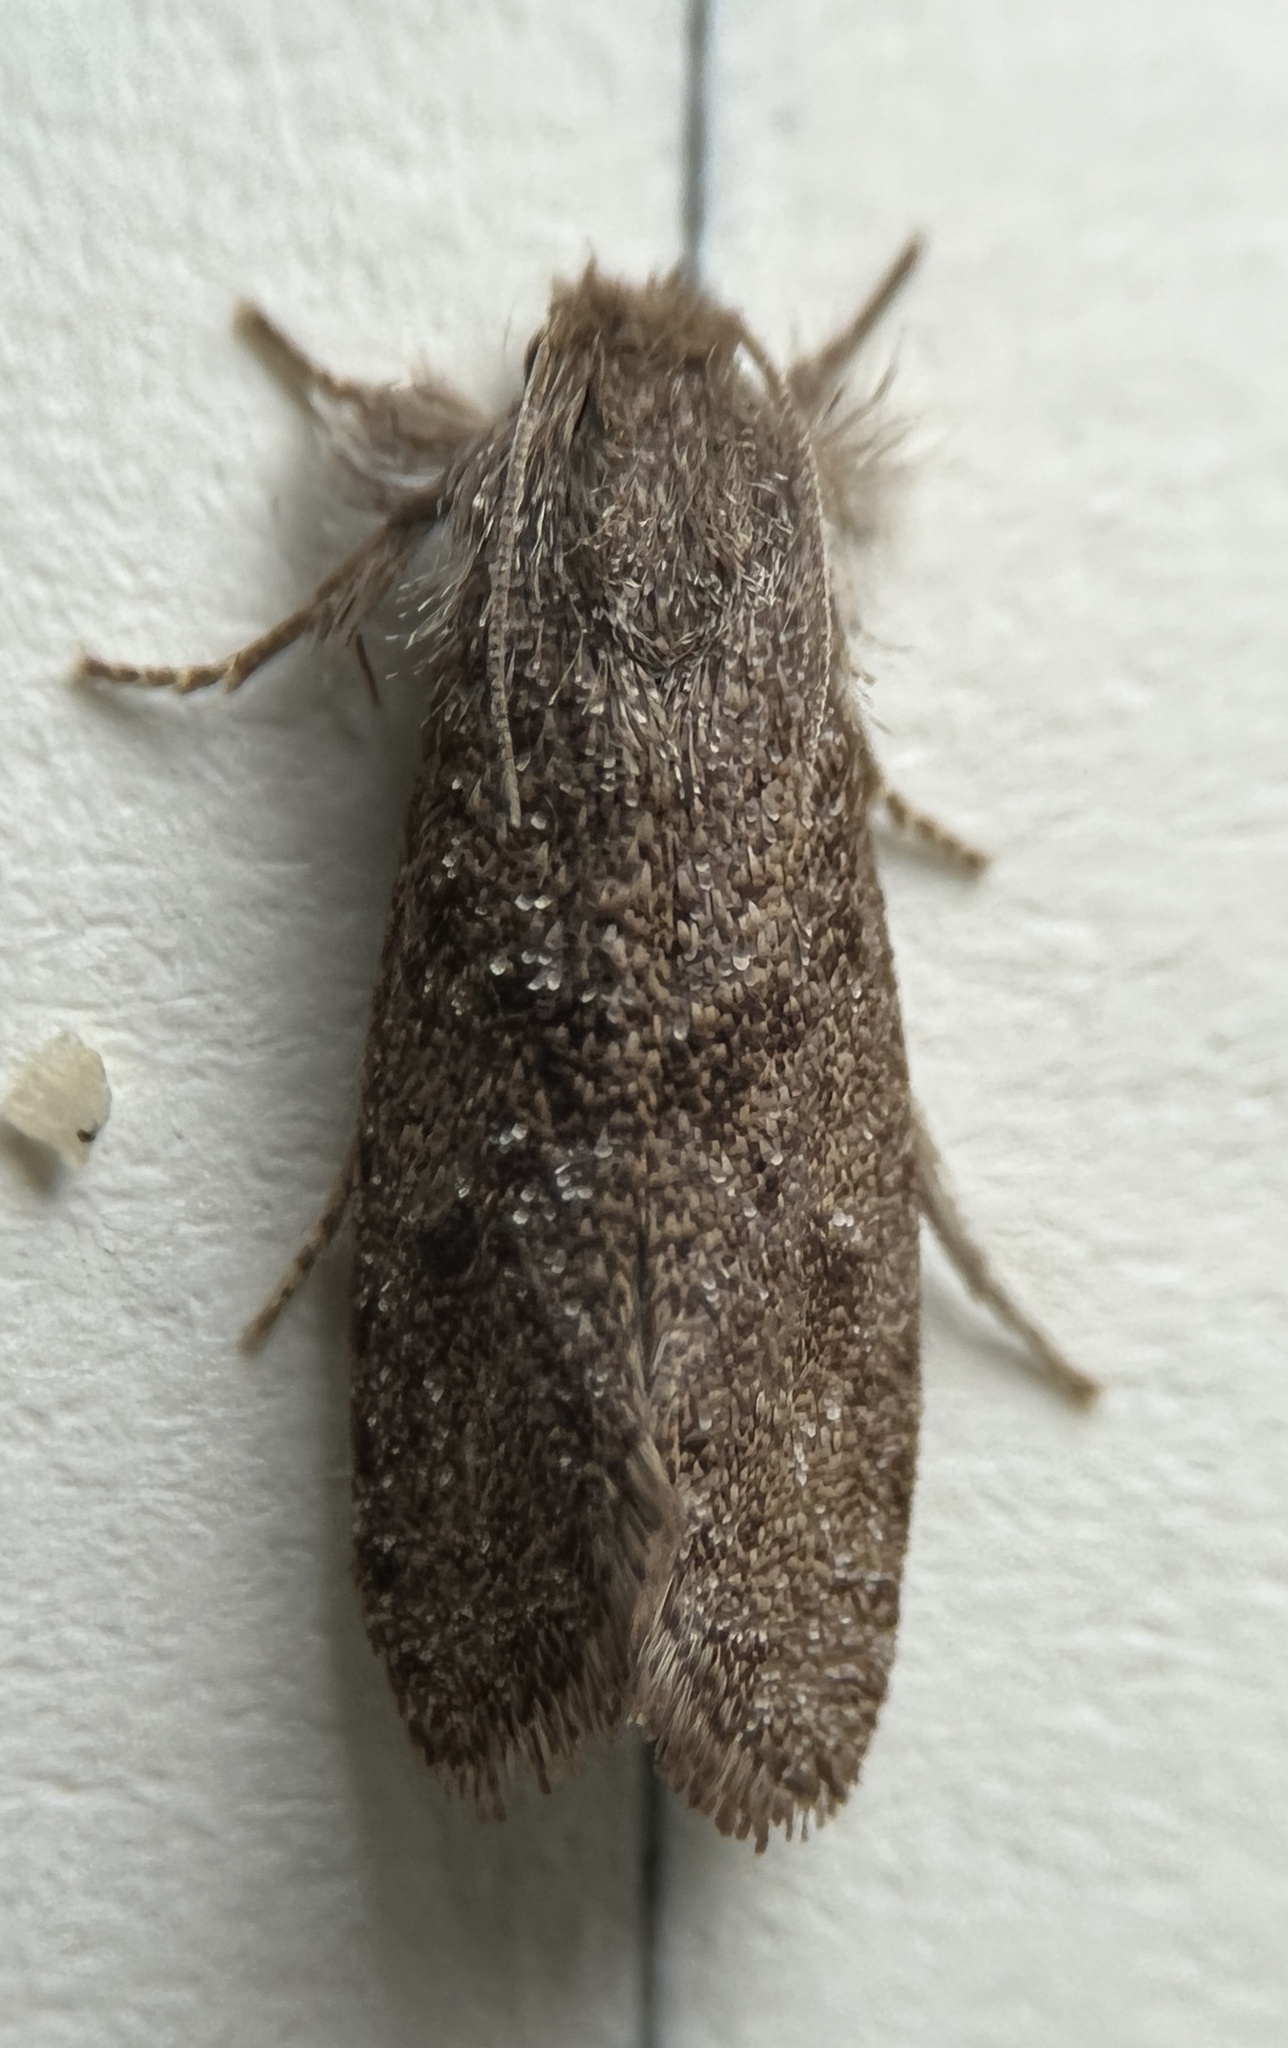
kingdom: Animalia
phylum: Arthropoda
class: Insecta
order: Lepidoptera
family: Tineidae
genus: Acrolophus
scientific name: Acrolophus heppneri
